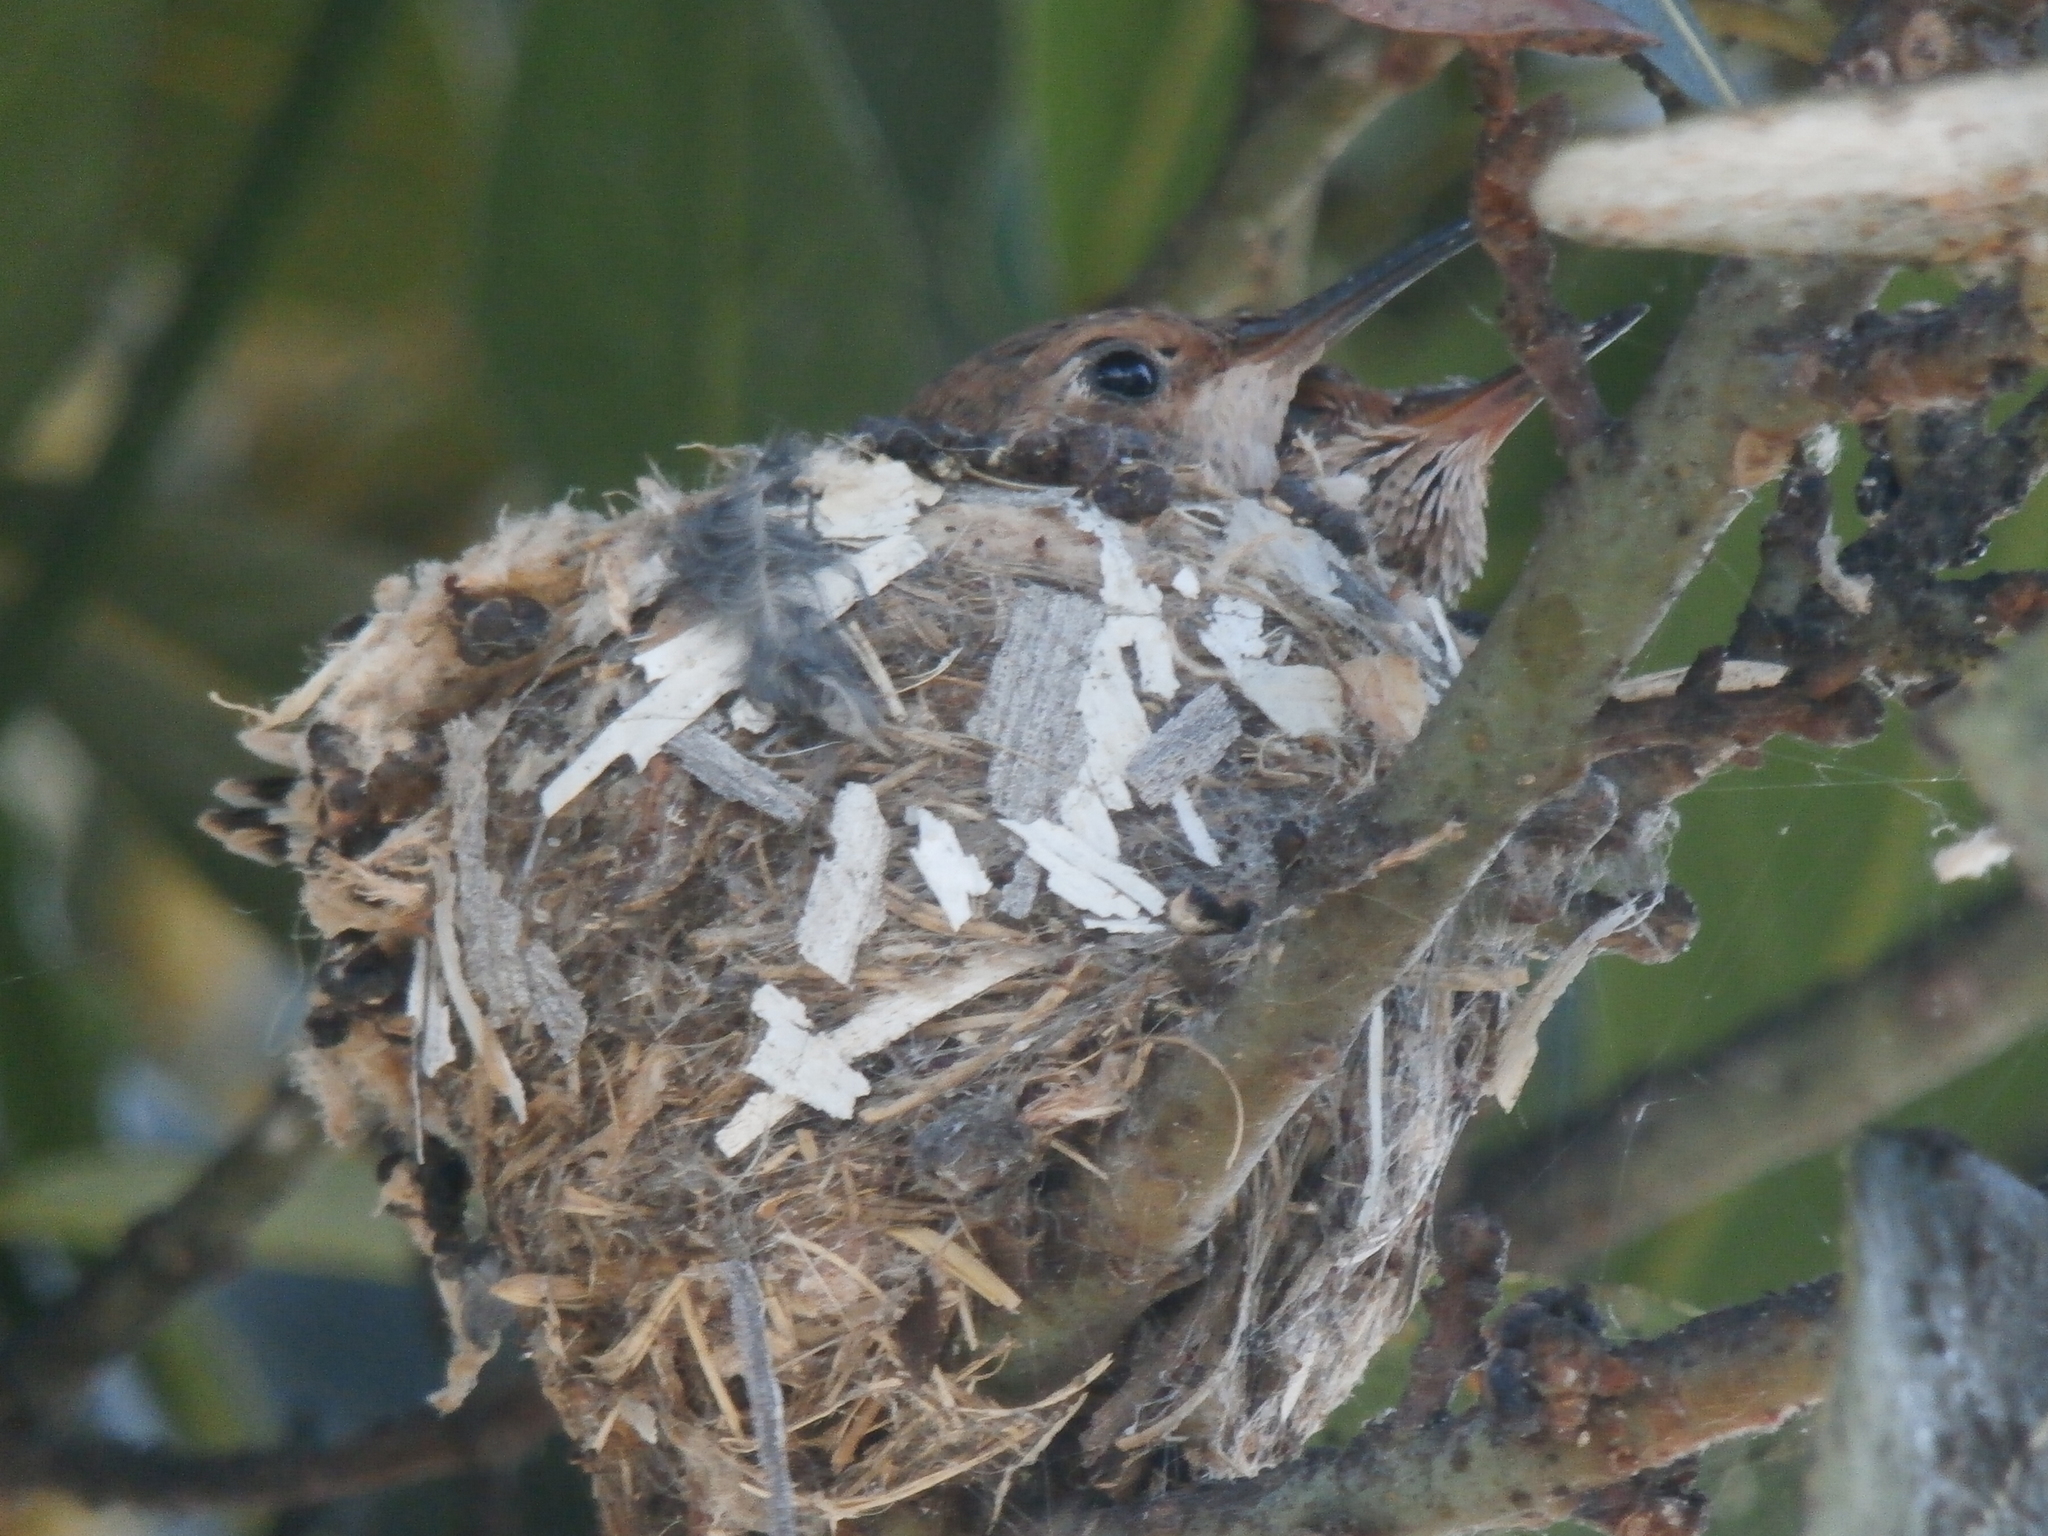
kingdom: Animalia
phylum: Chordata
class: Aves
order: Apodiformes
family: Trochilidae
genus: Selasphorus
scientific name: Selasphorus sasin
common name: Allen's hummingbird
